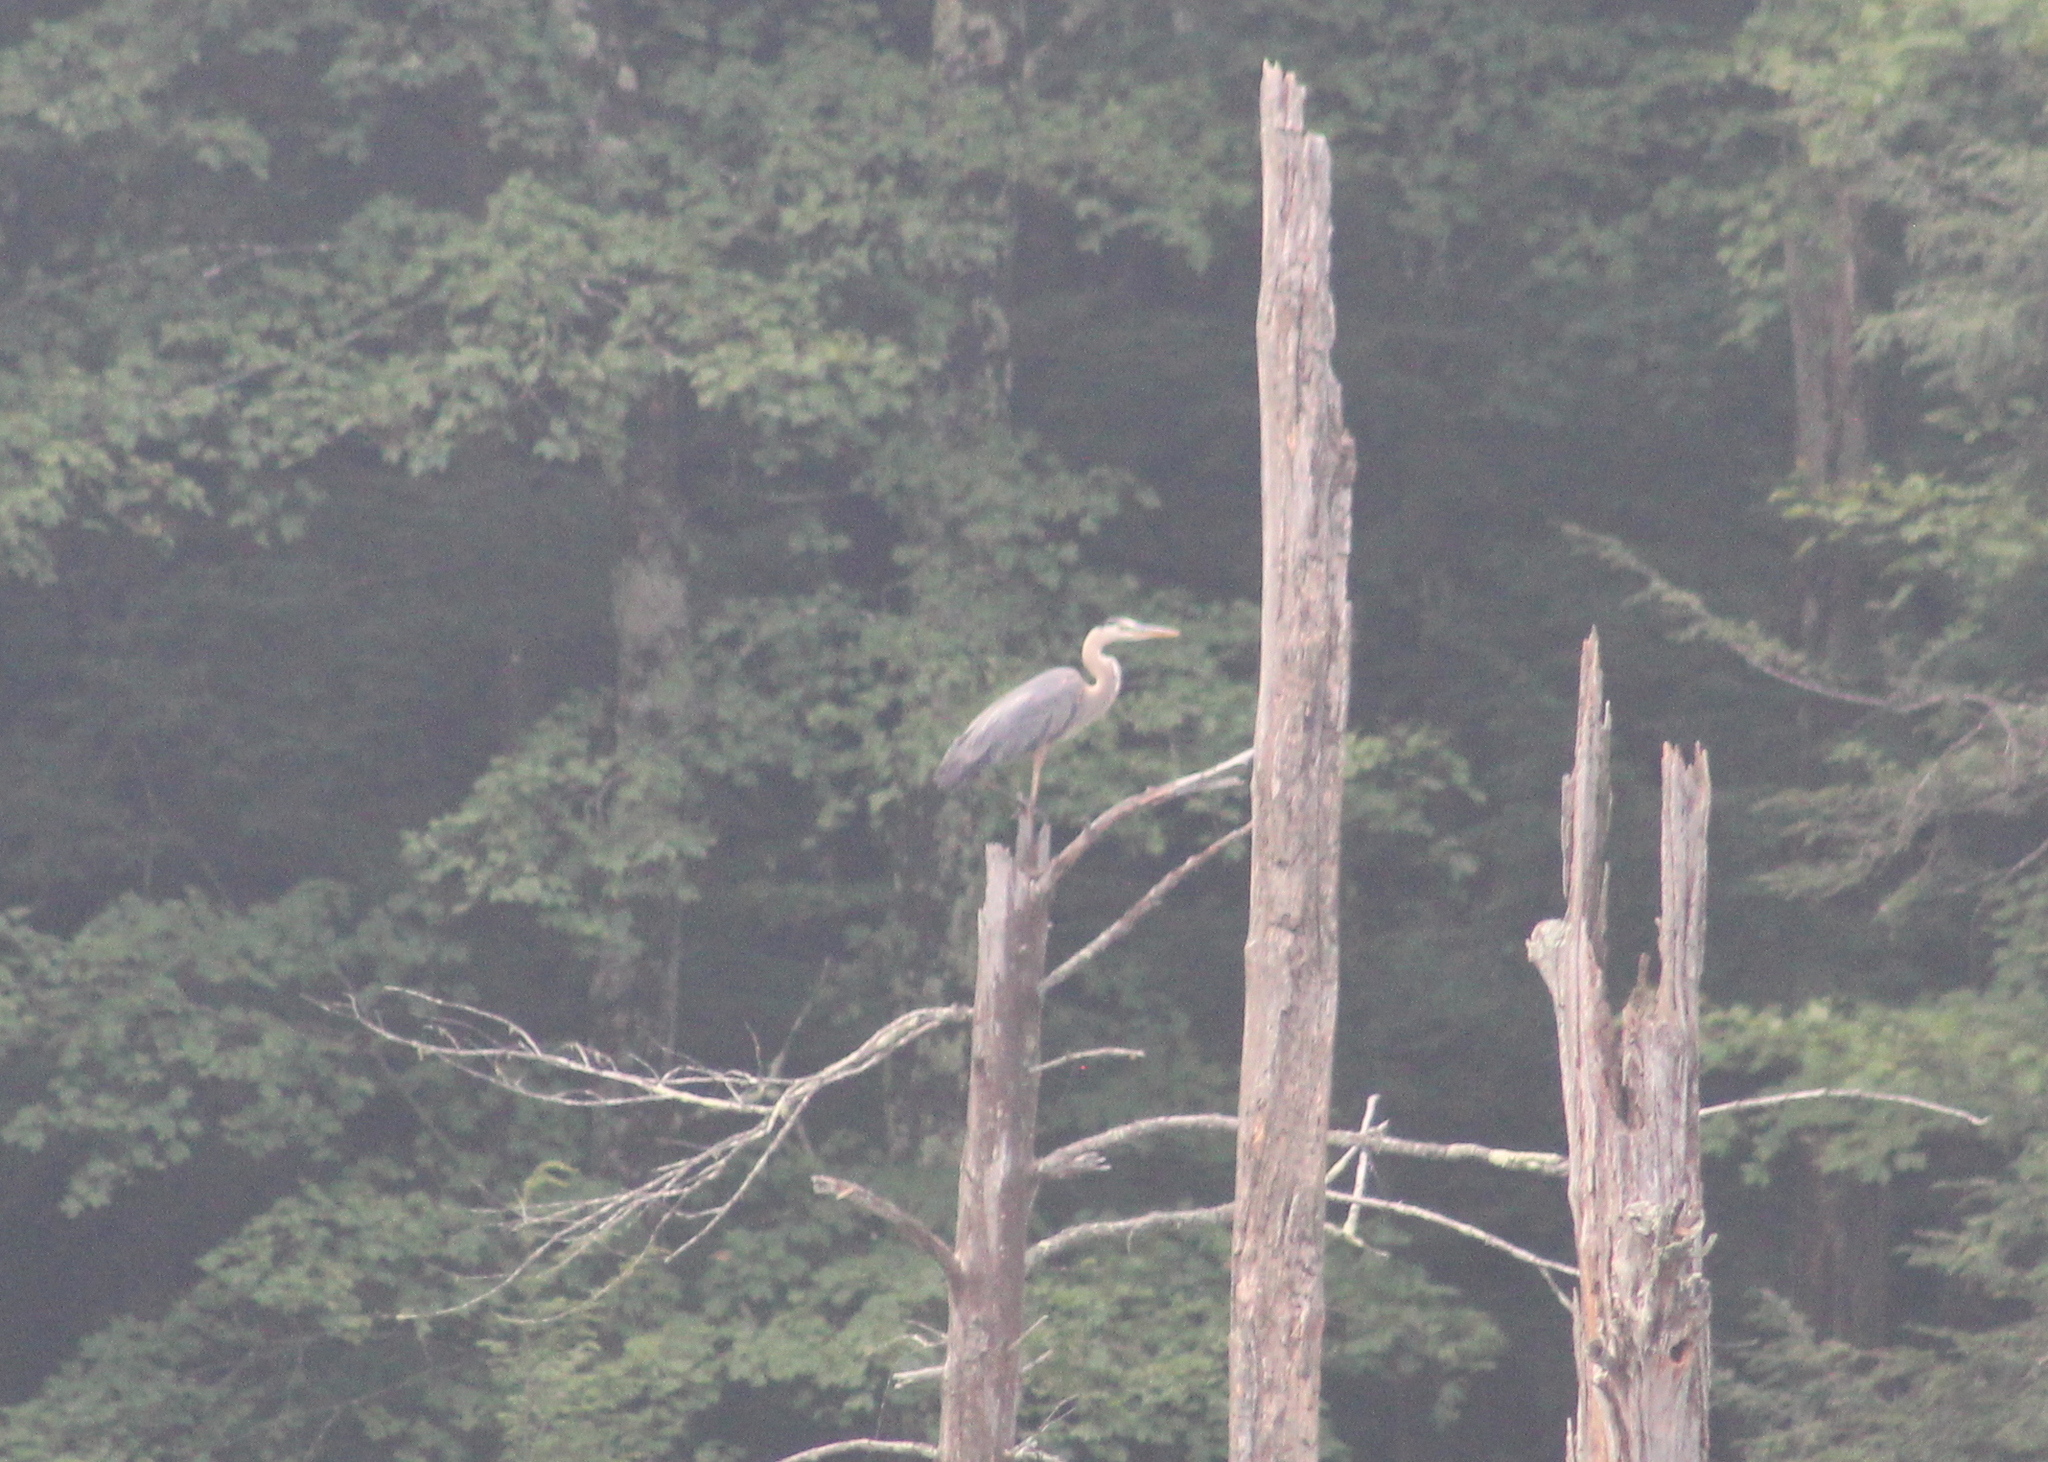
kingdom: Animalia
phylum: Chordata
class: Aves
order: Pelecaniformes
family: Ardeidae
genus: Ardea
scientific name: Ardea herodias
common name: Great blue heron
